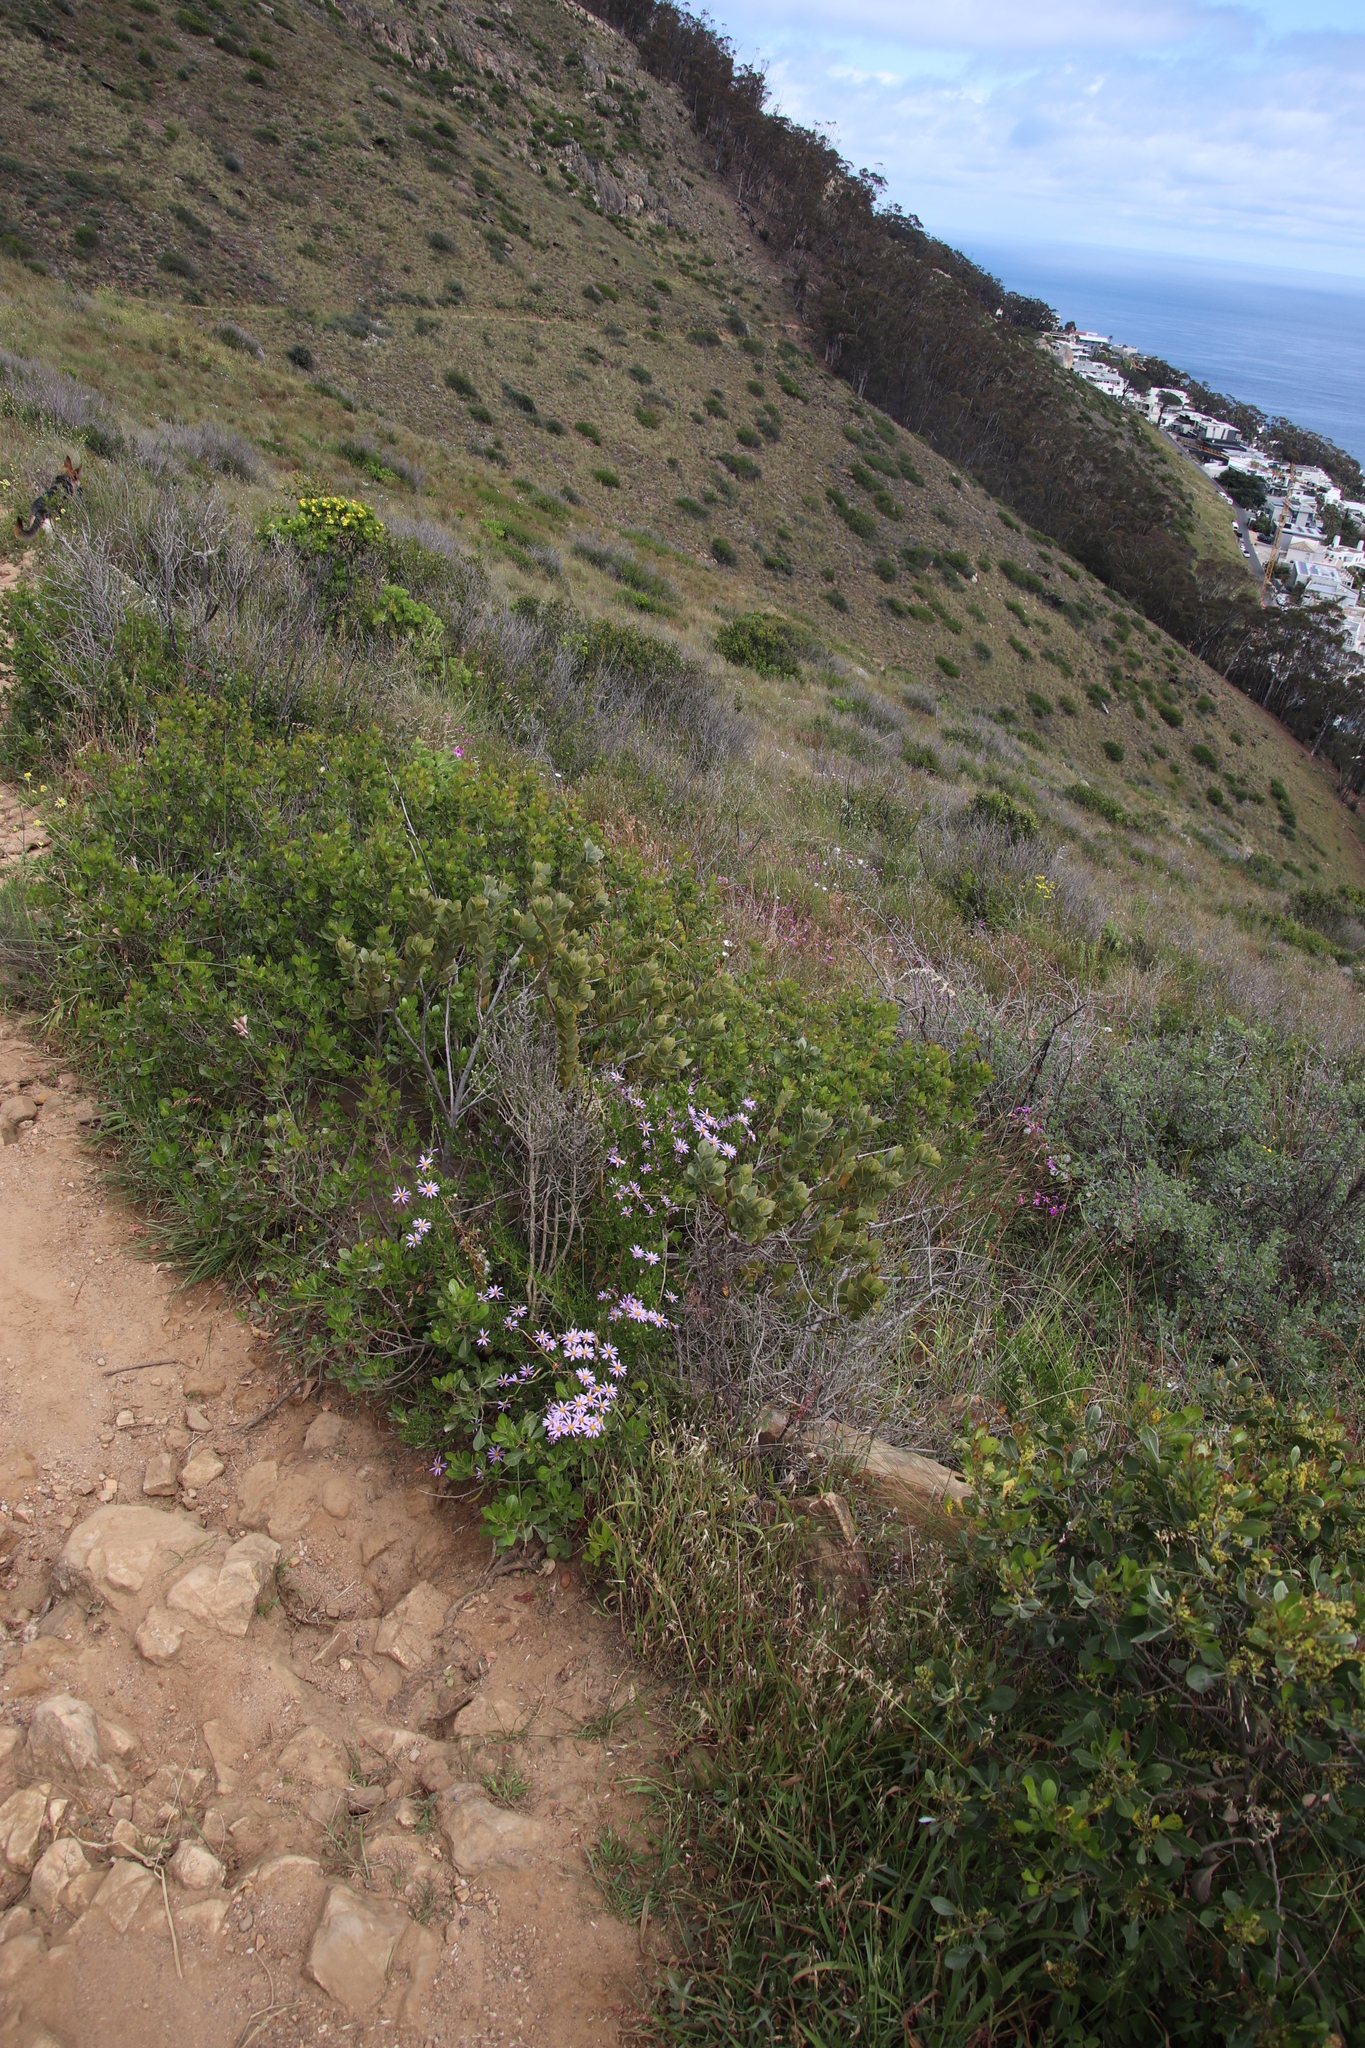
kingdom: Plantae
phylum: Tracheophyta
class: Magnoliopsida
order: Asterales
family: Asteraceae
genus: Felicia
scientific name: Felicia fruticosa
